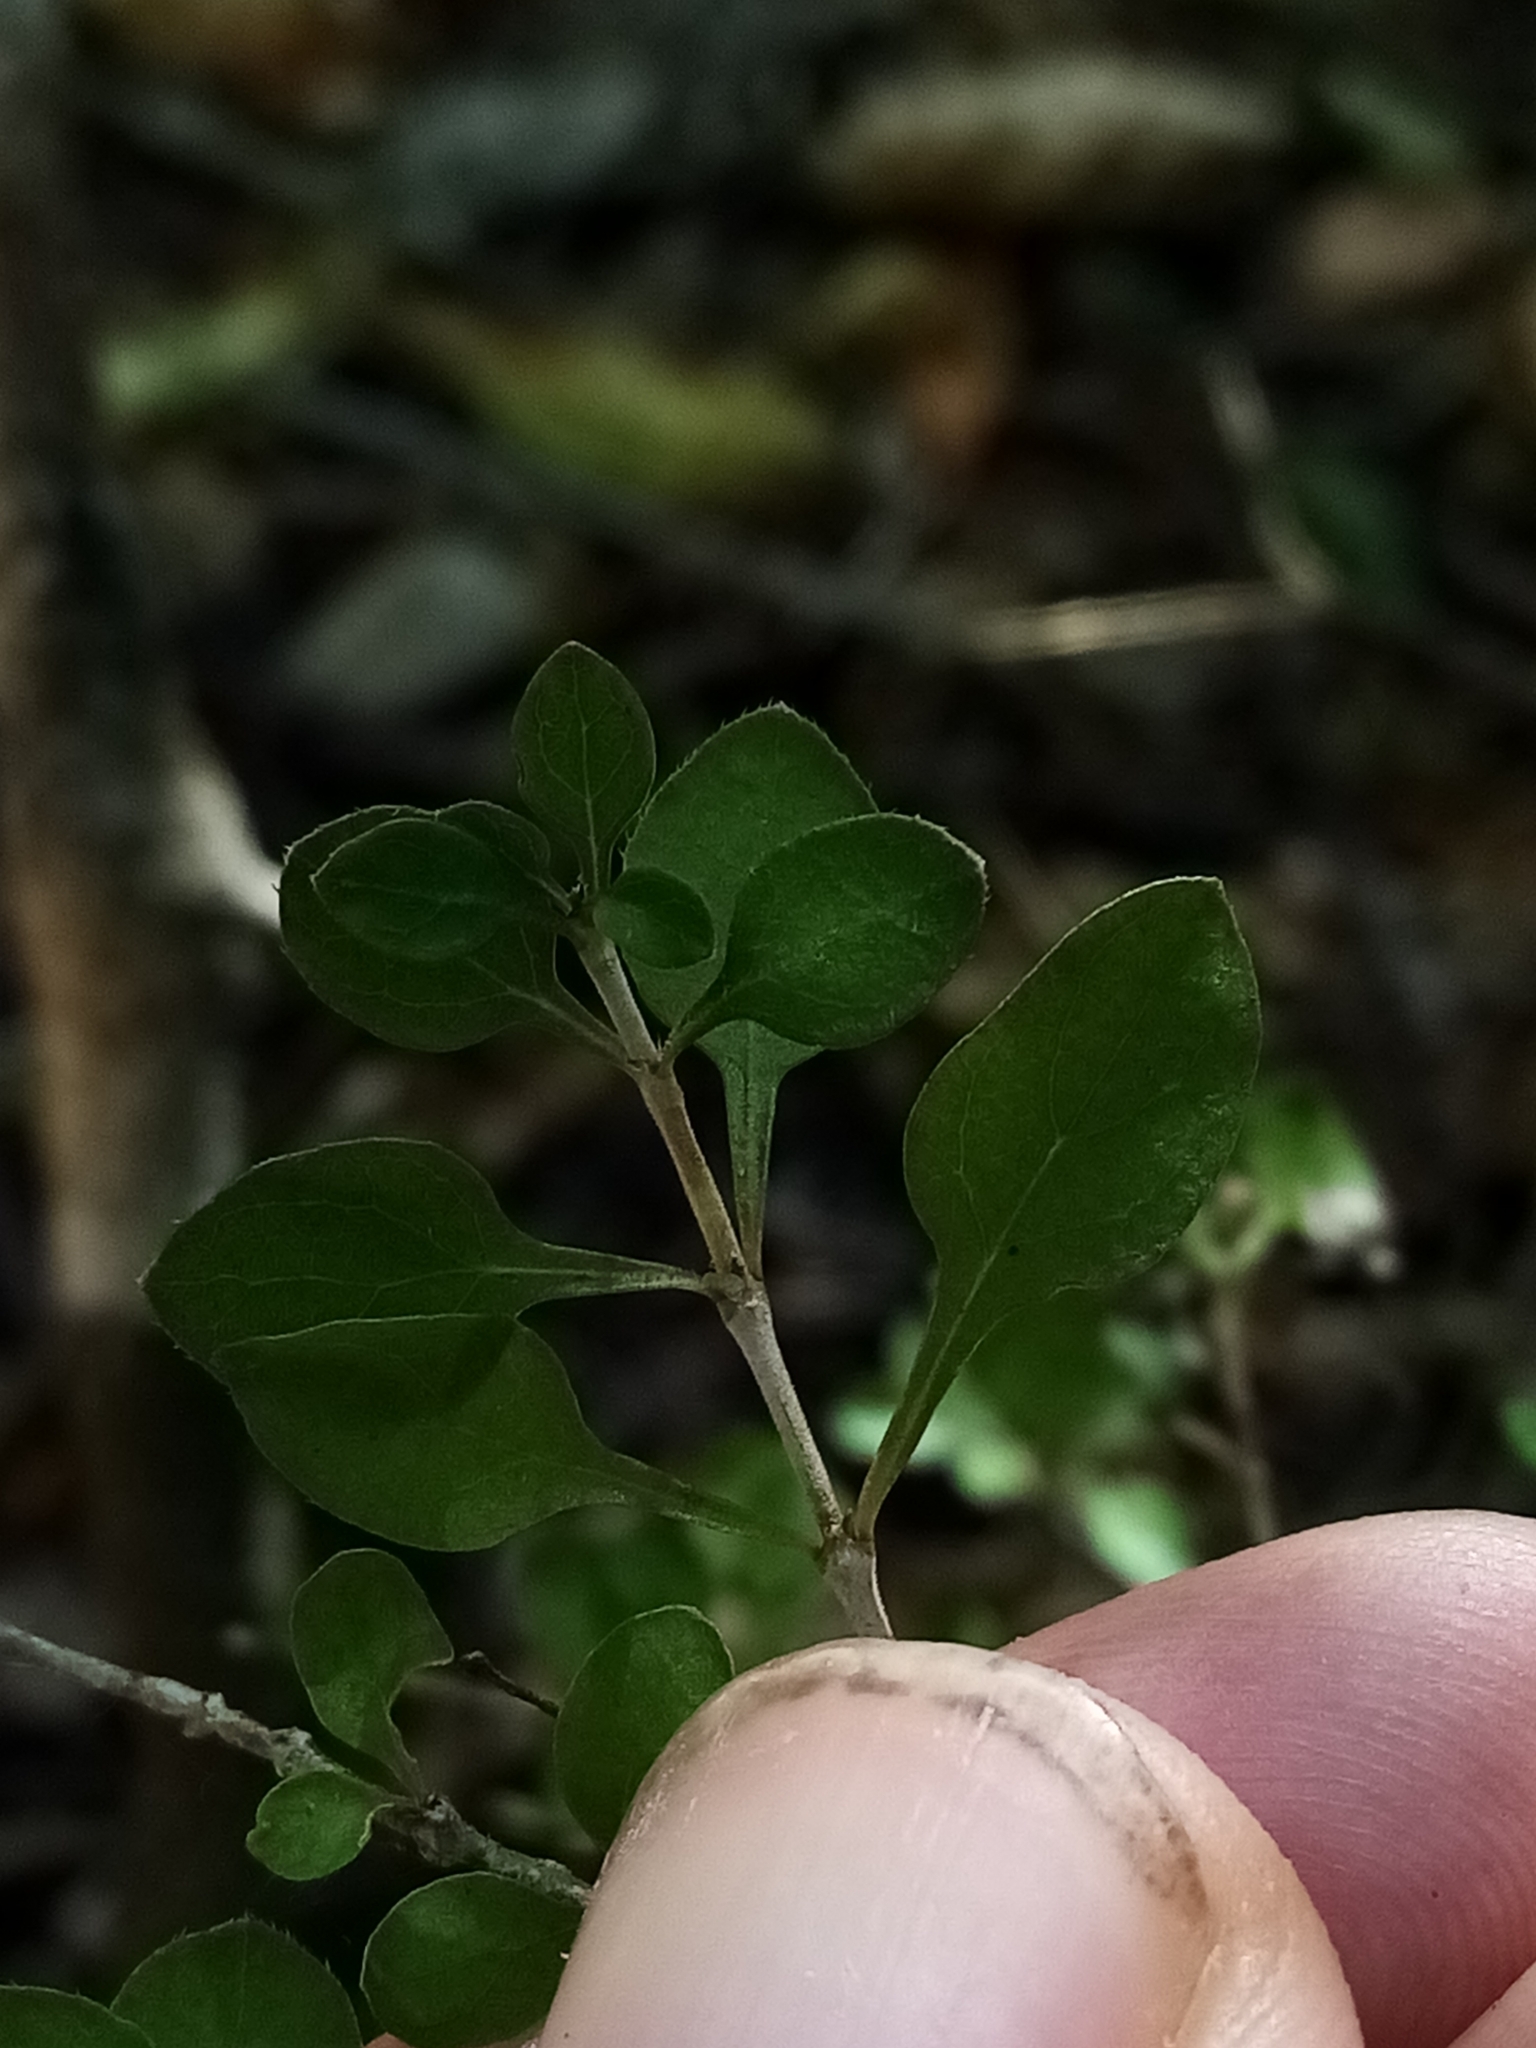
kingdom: Plantae
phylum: Tracheophyta
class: Magnoliopsida
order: Gentianales
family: Rubiaceae
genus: Coprosma
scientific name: Coprosma virescens
